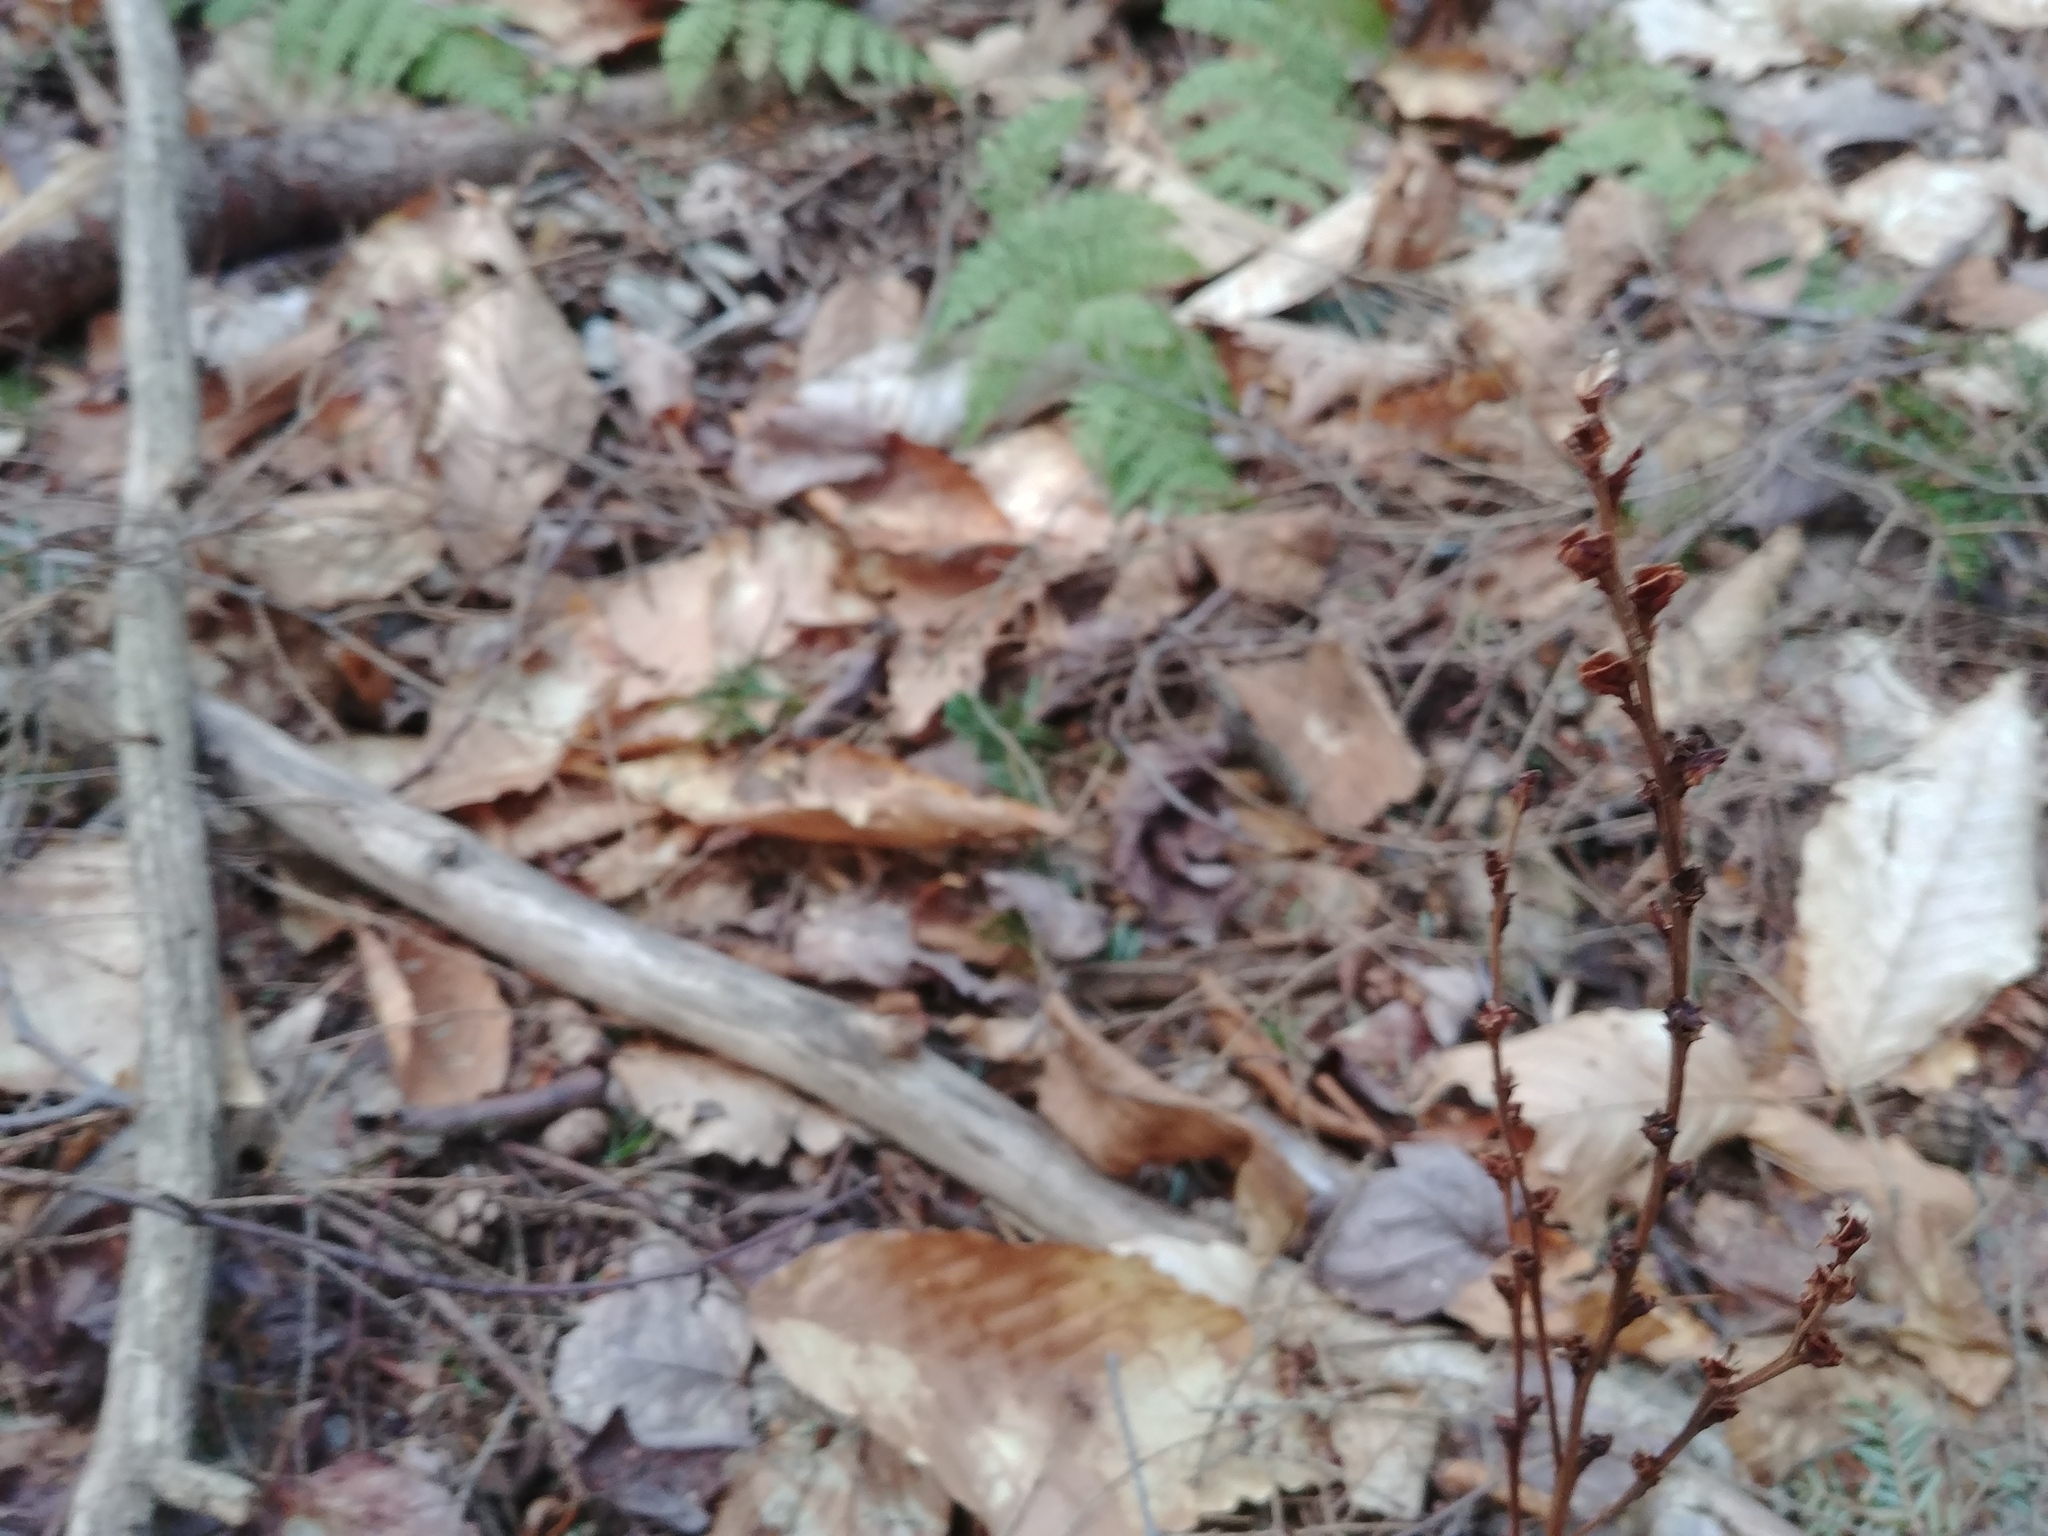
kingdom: Plantae
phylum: Tracheophyta
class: Magnoliopsida
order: Lamiales
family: Orobanchaceae
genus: Epifagus
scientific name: Epifagus virginiana
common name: Beechdrops
